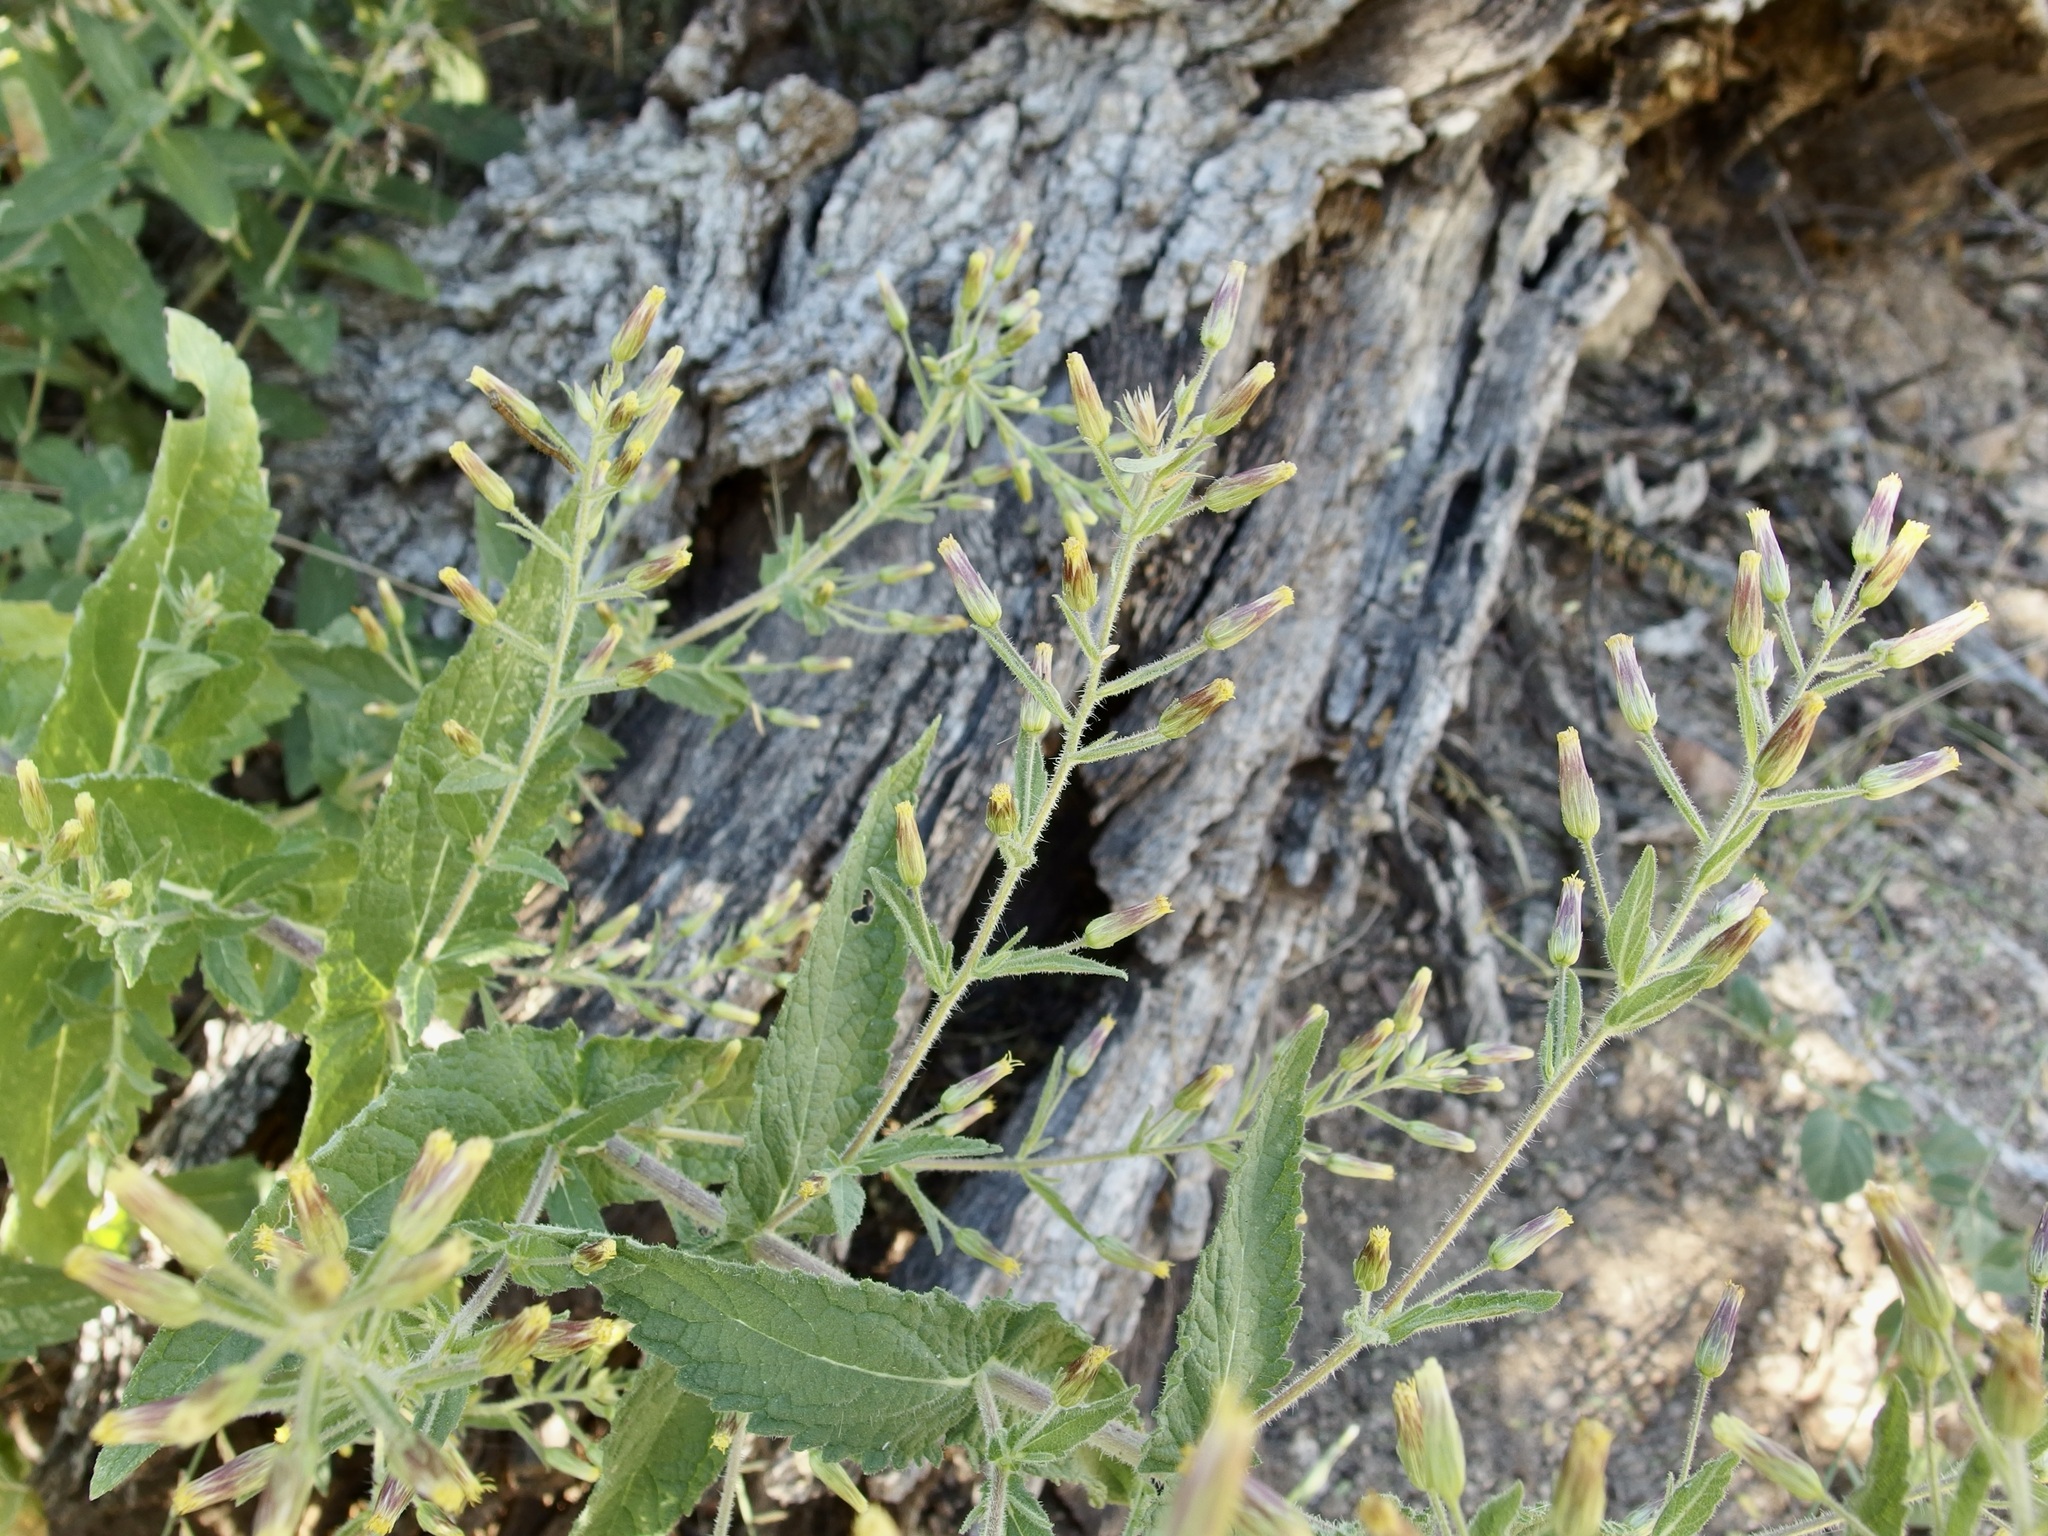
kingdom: Plantae
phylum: Tracheophyta
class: Magnoliopsida
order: Asterales
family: Asteraceae
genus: Brickellia
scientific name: Brickellia amplexicaulis
